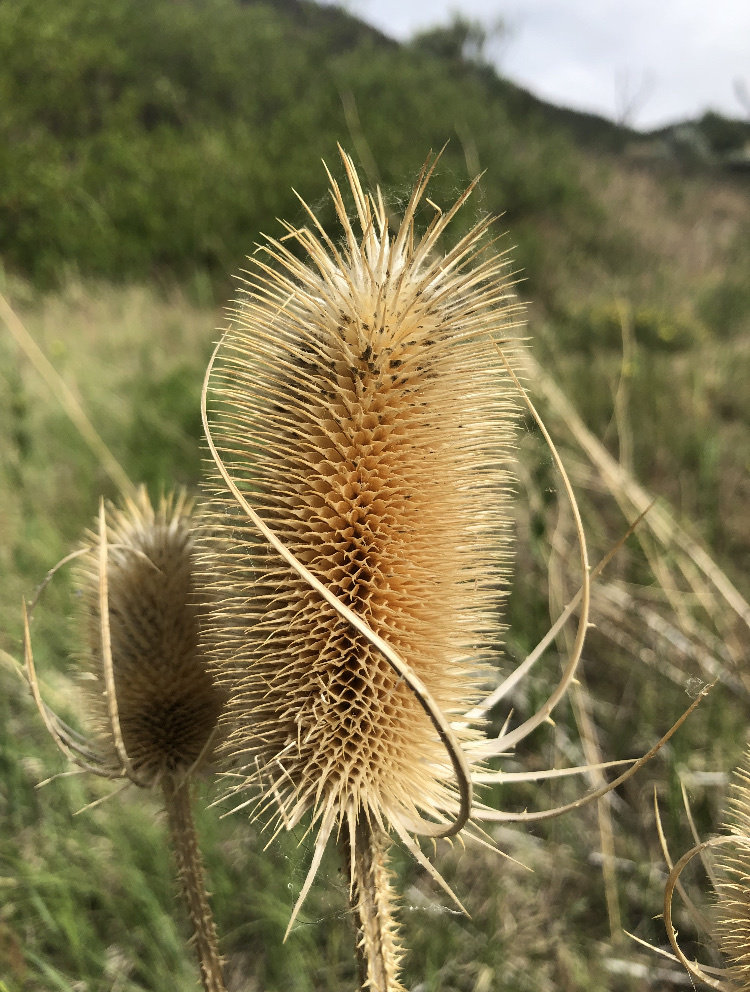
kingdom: Plantae
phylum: Tracheophyta
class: Magnoliopsida
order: Dipsacales
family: Caprifoliaceae
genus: Dipsacus
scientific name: Dipsacus fullonum
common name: Teasel
